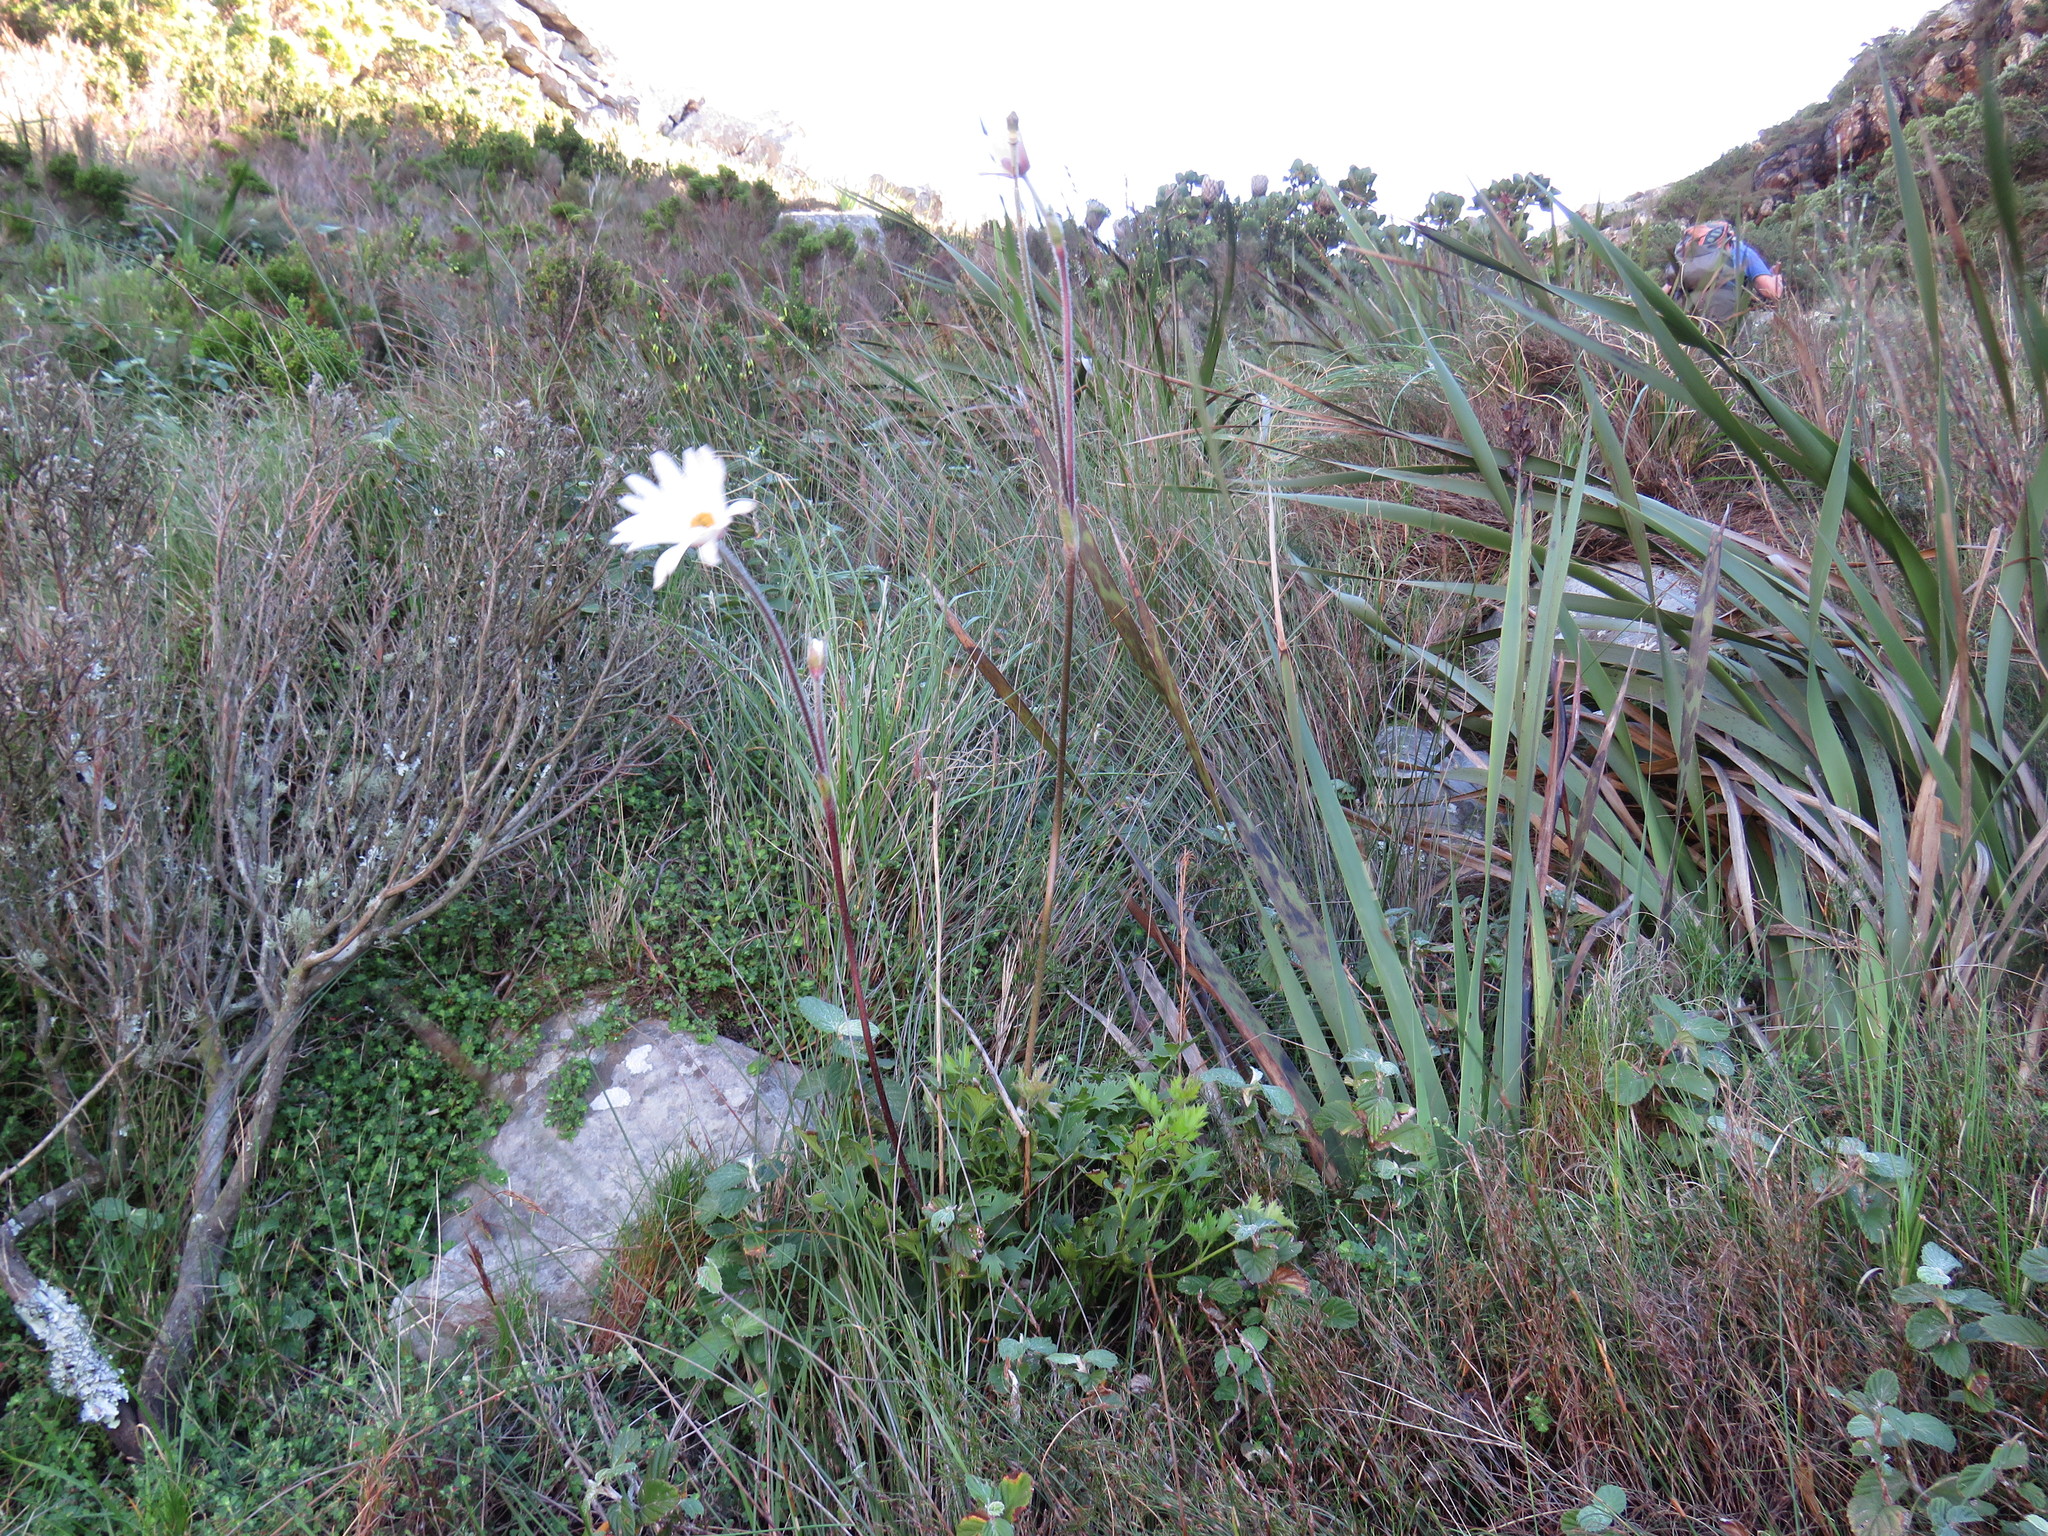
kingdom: Plantae
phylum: Tracheophyta
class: Magnoliopsida
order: Ranunculales
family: Ranunculaceae
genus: Knowltonia
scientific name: Knowltonia tenuifolia
